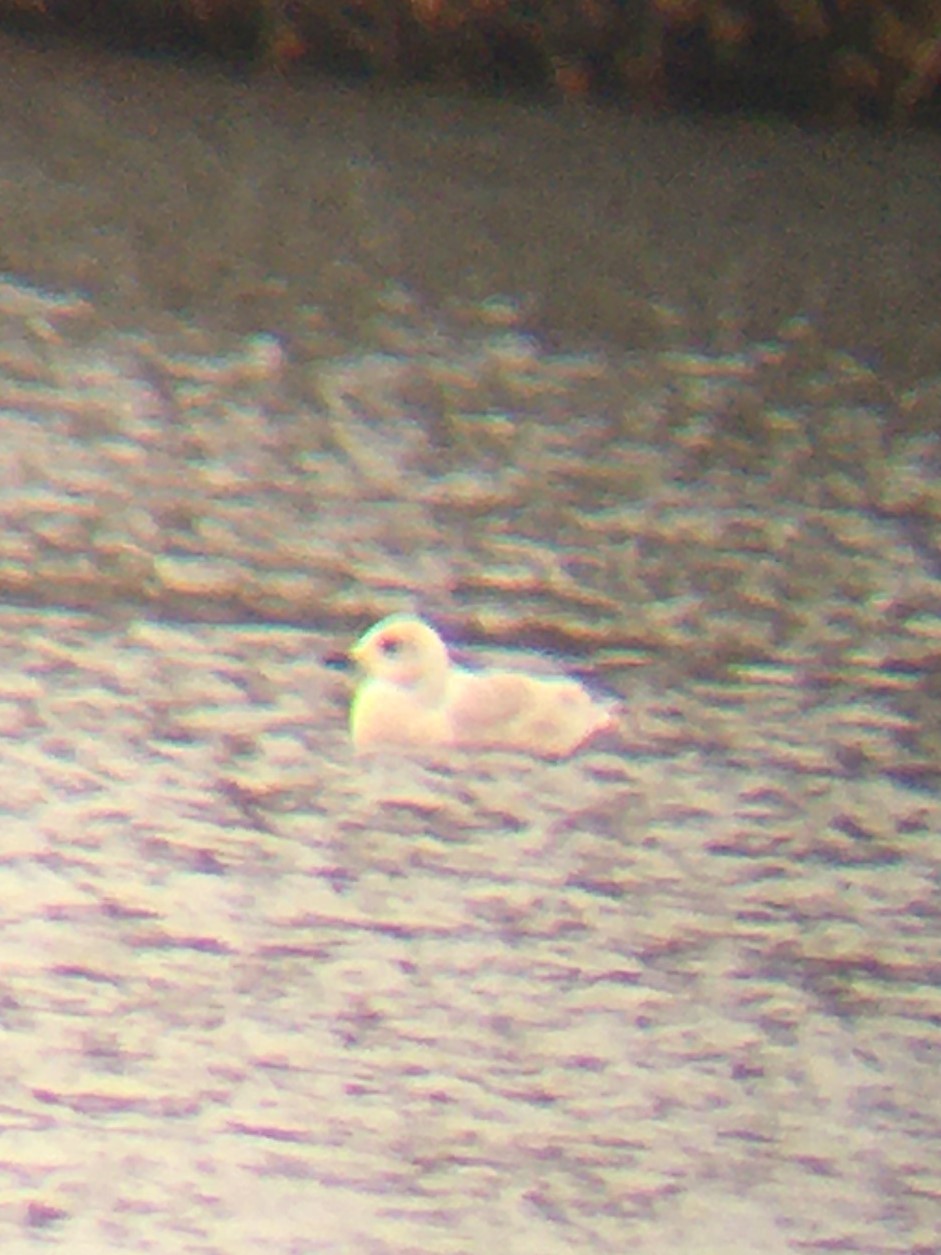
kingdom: Animalia
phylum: Chordata
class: Aves
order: Charadriiformes
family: Laridae
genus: Larus
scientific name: Larus glaucoides
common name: Iceland gull
